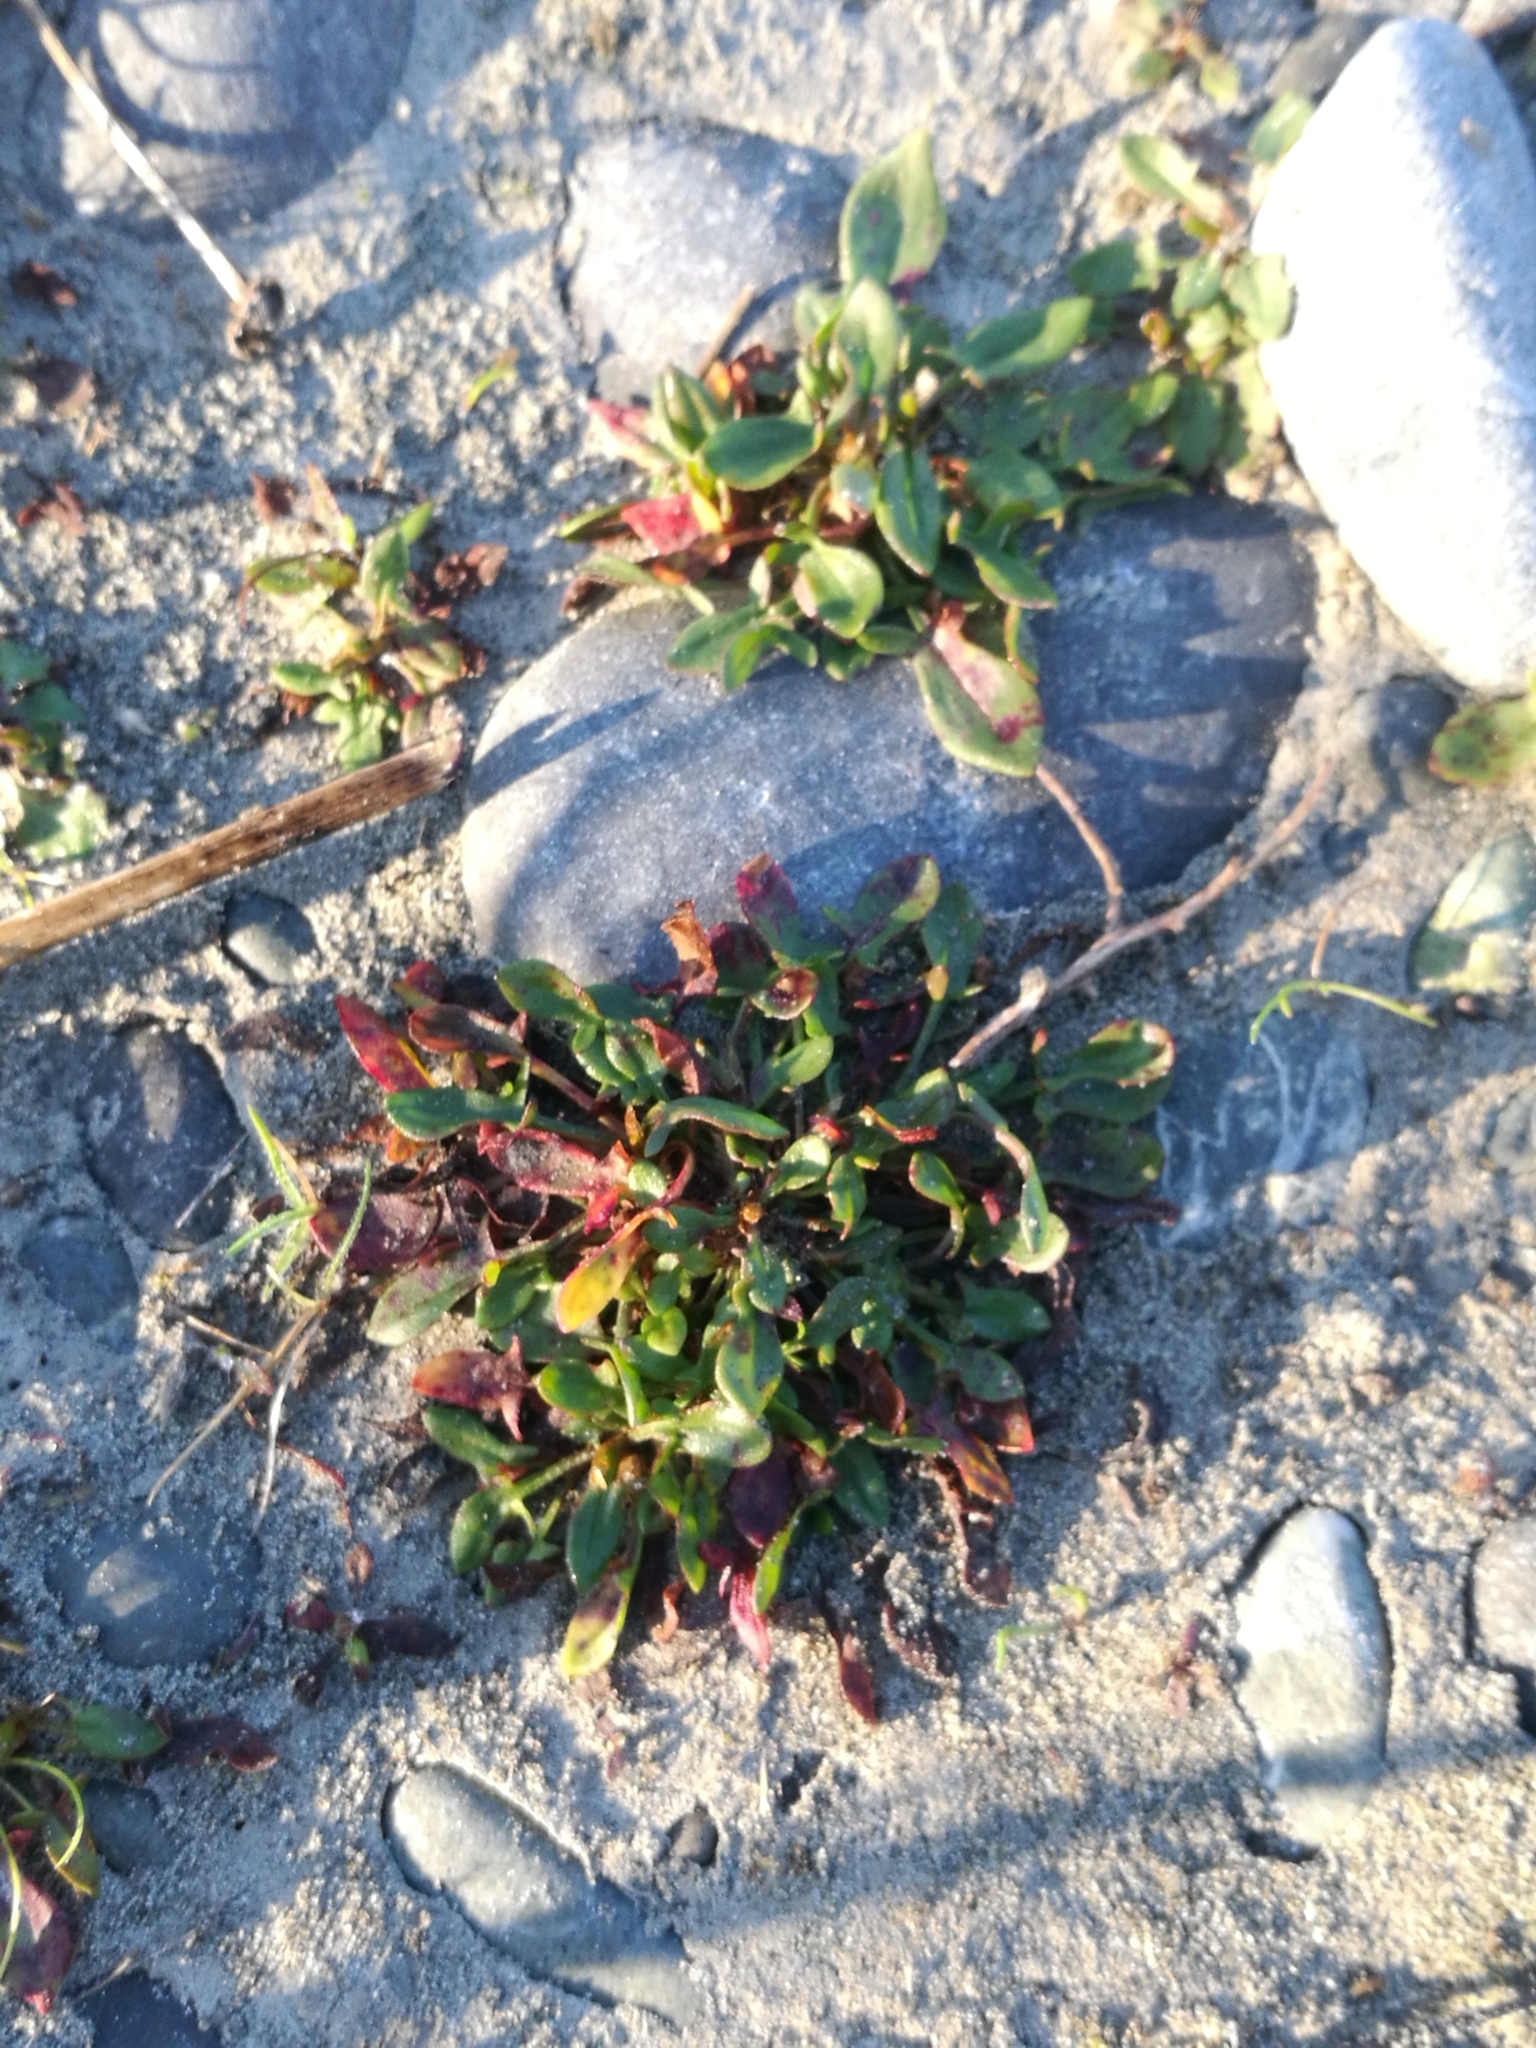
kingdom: Plantae
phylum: Tracheophyta
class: Magnoliopsida
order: Caryophyllales
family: Polygonaceae
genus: Rumex
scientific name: Rumex acetosella
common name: Common sheep sorrel
